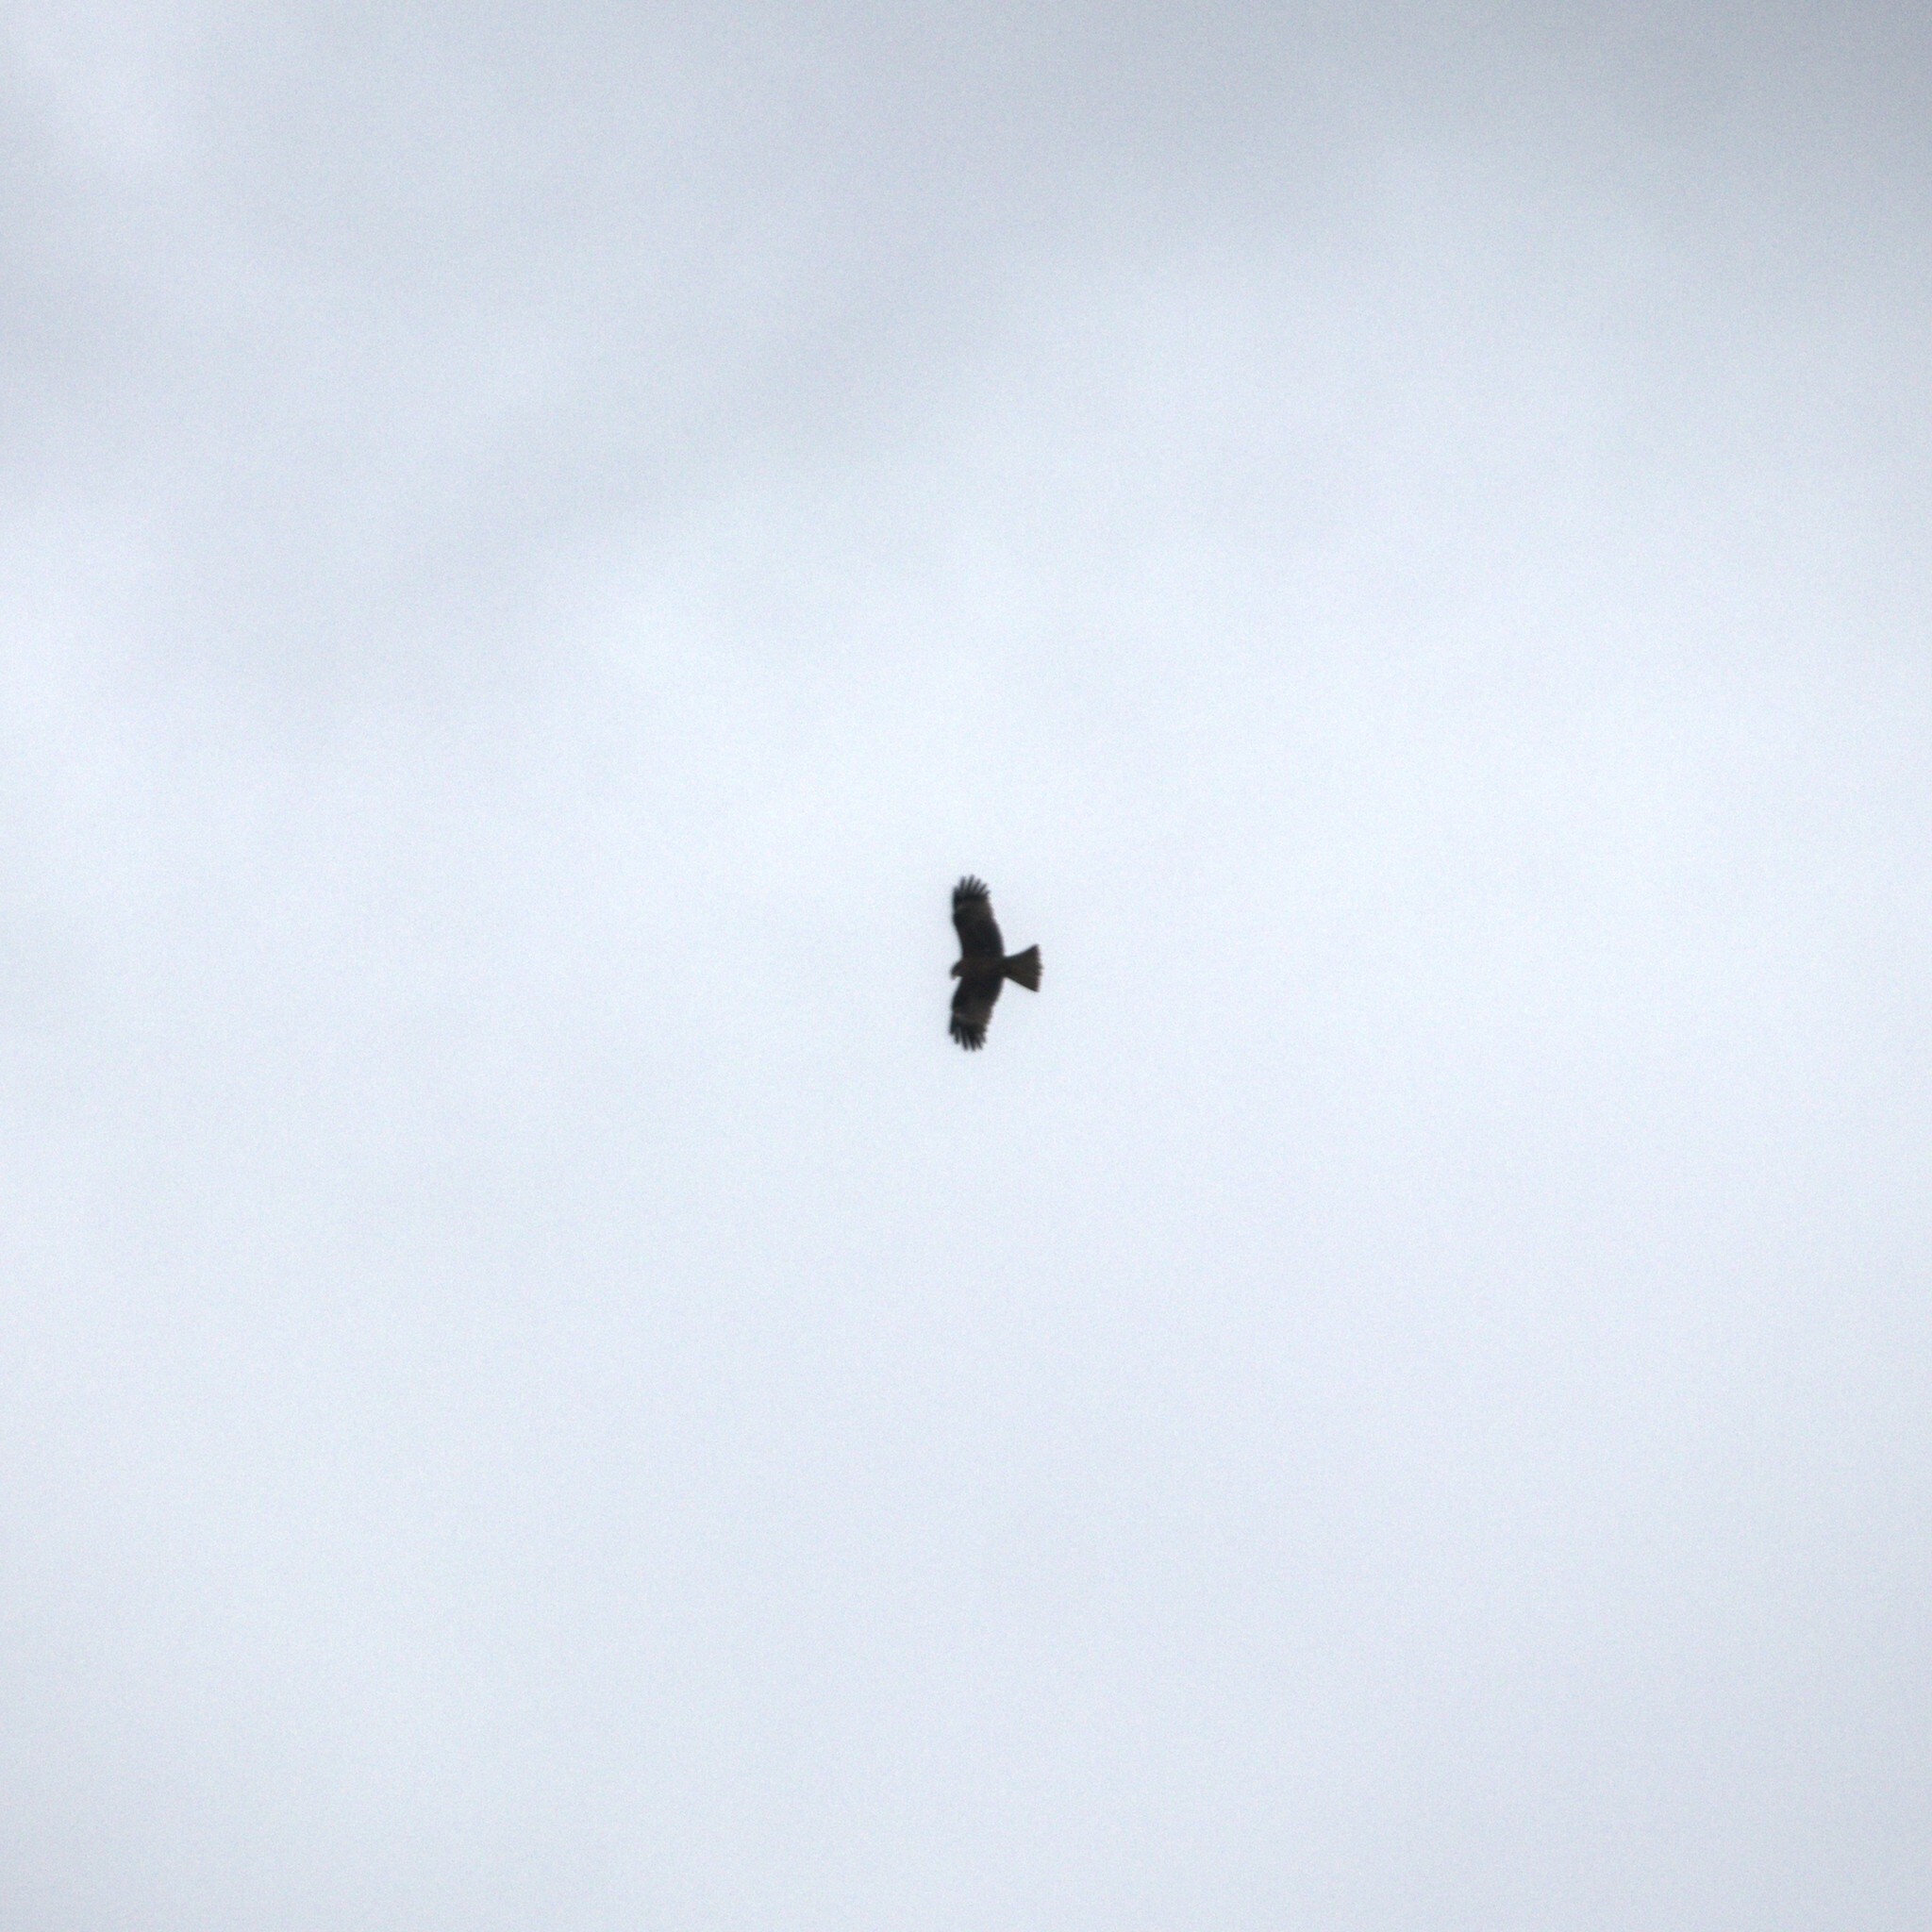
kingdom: Animalia
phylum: Chordata
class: Aves
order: Accipitriformes
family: Accipitridae
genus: Milvus
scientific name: Milvus migrans
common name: Black kite
